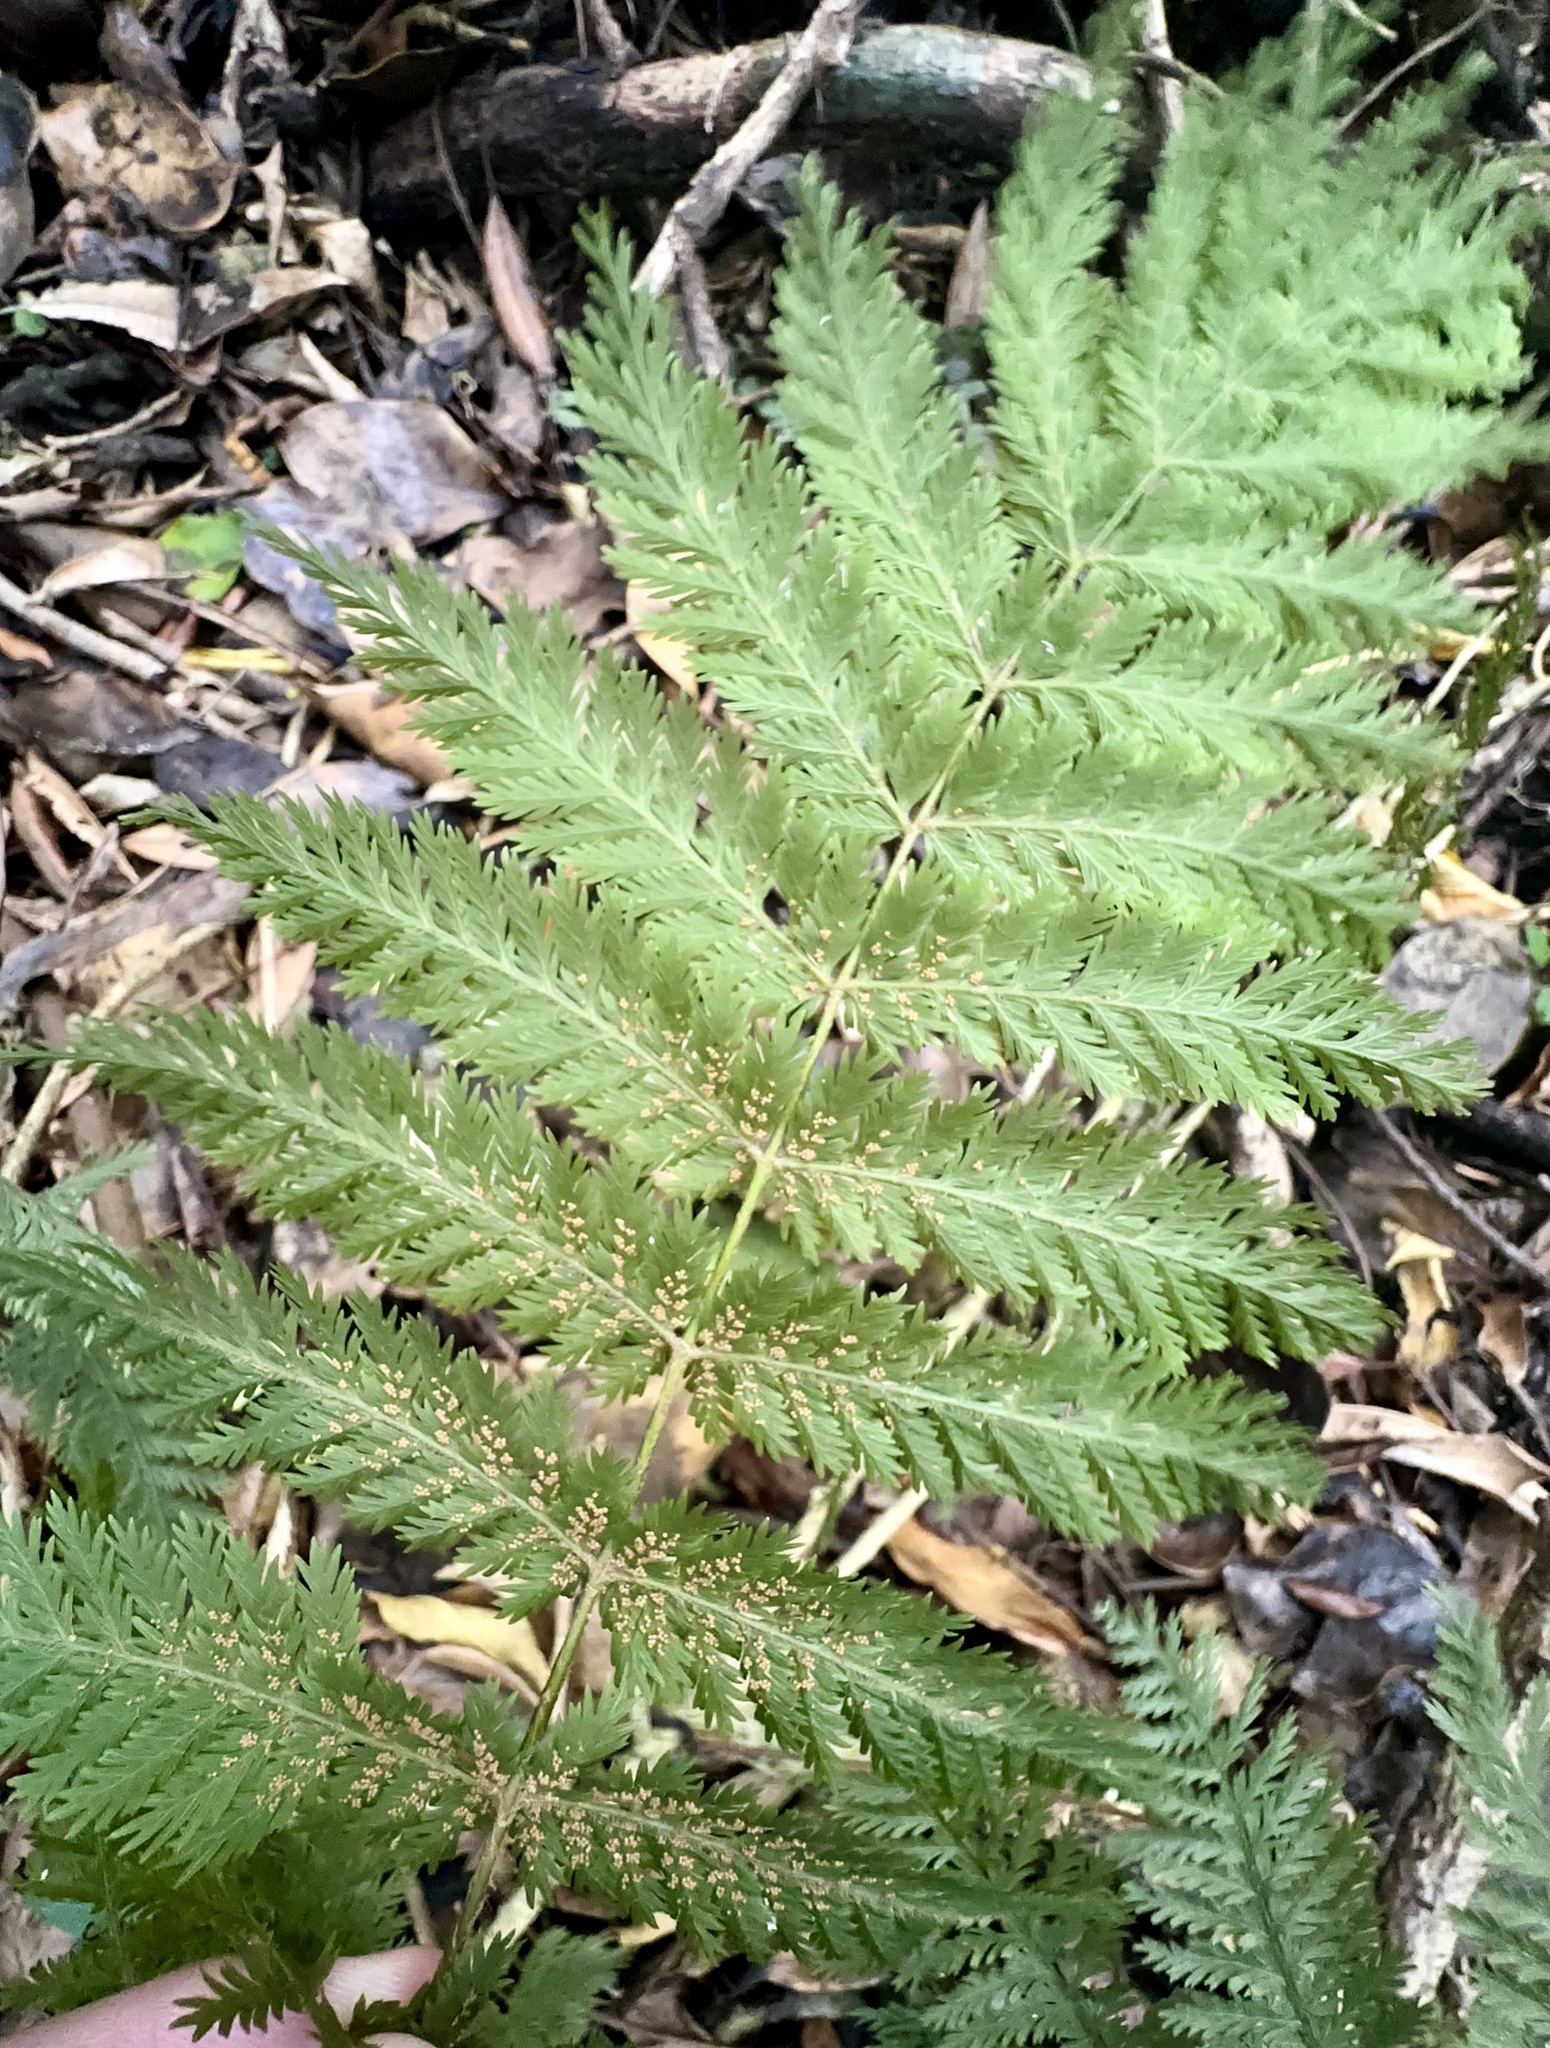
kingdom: Plantae
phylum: Tracheophyta
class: Polypodiopsida
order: Osmundales
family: Osmundaceae
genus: Leptopteris
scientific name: Leptopteris hymenophylloides
